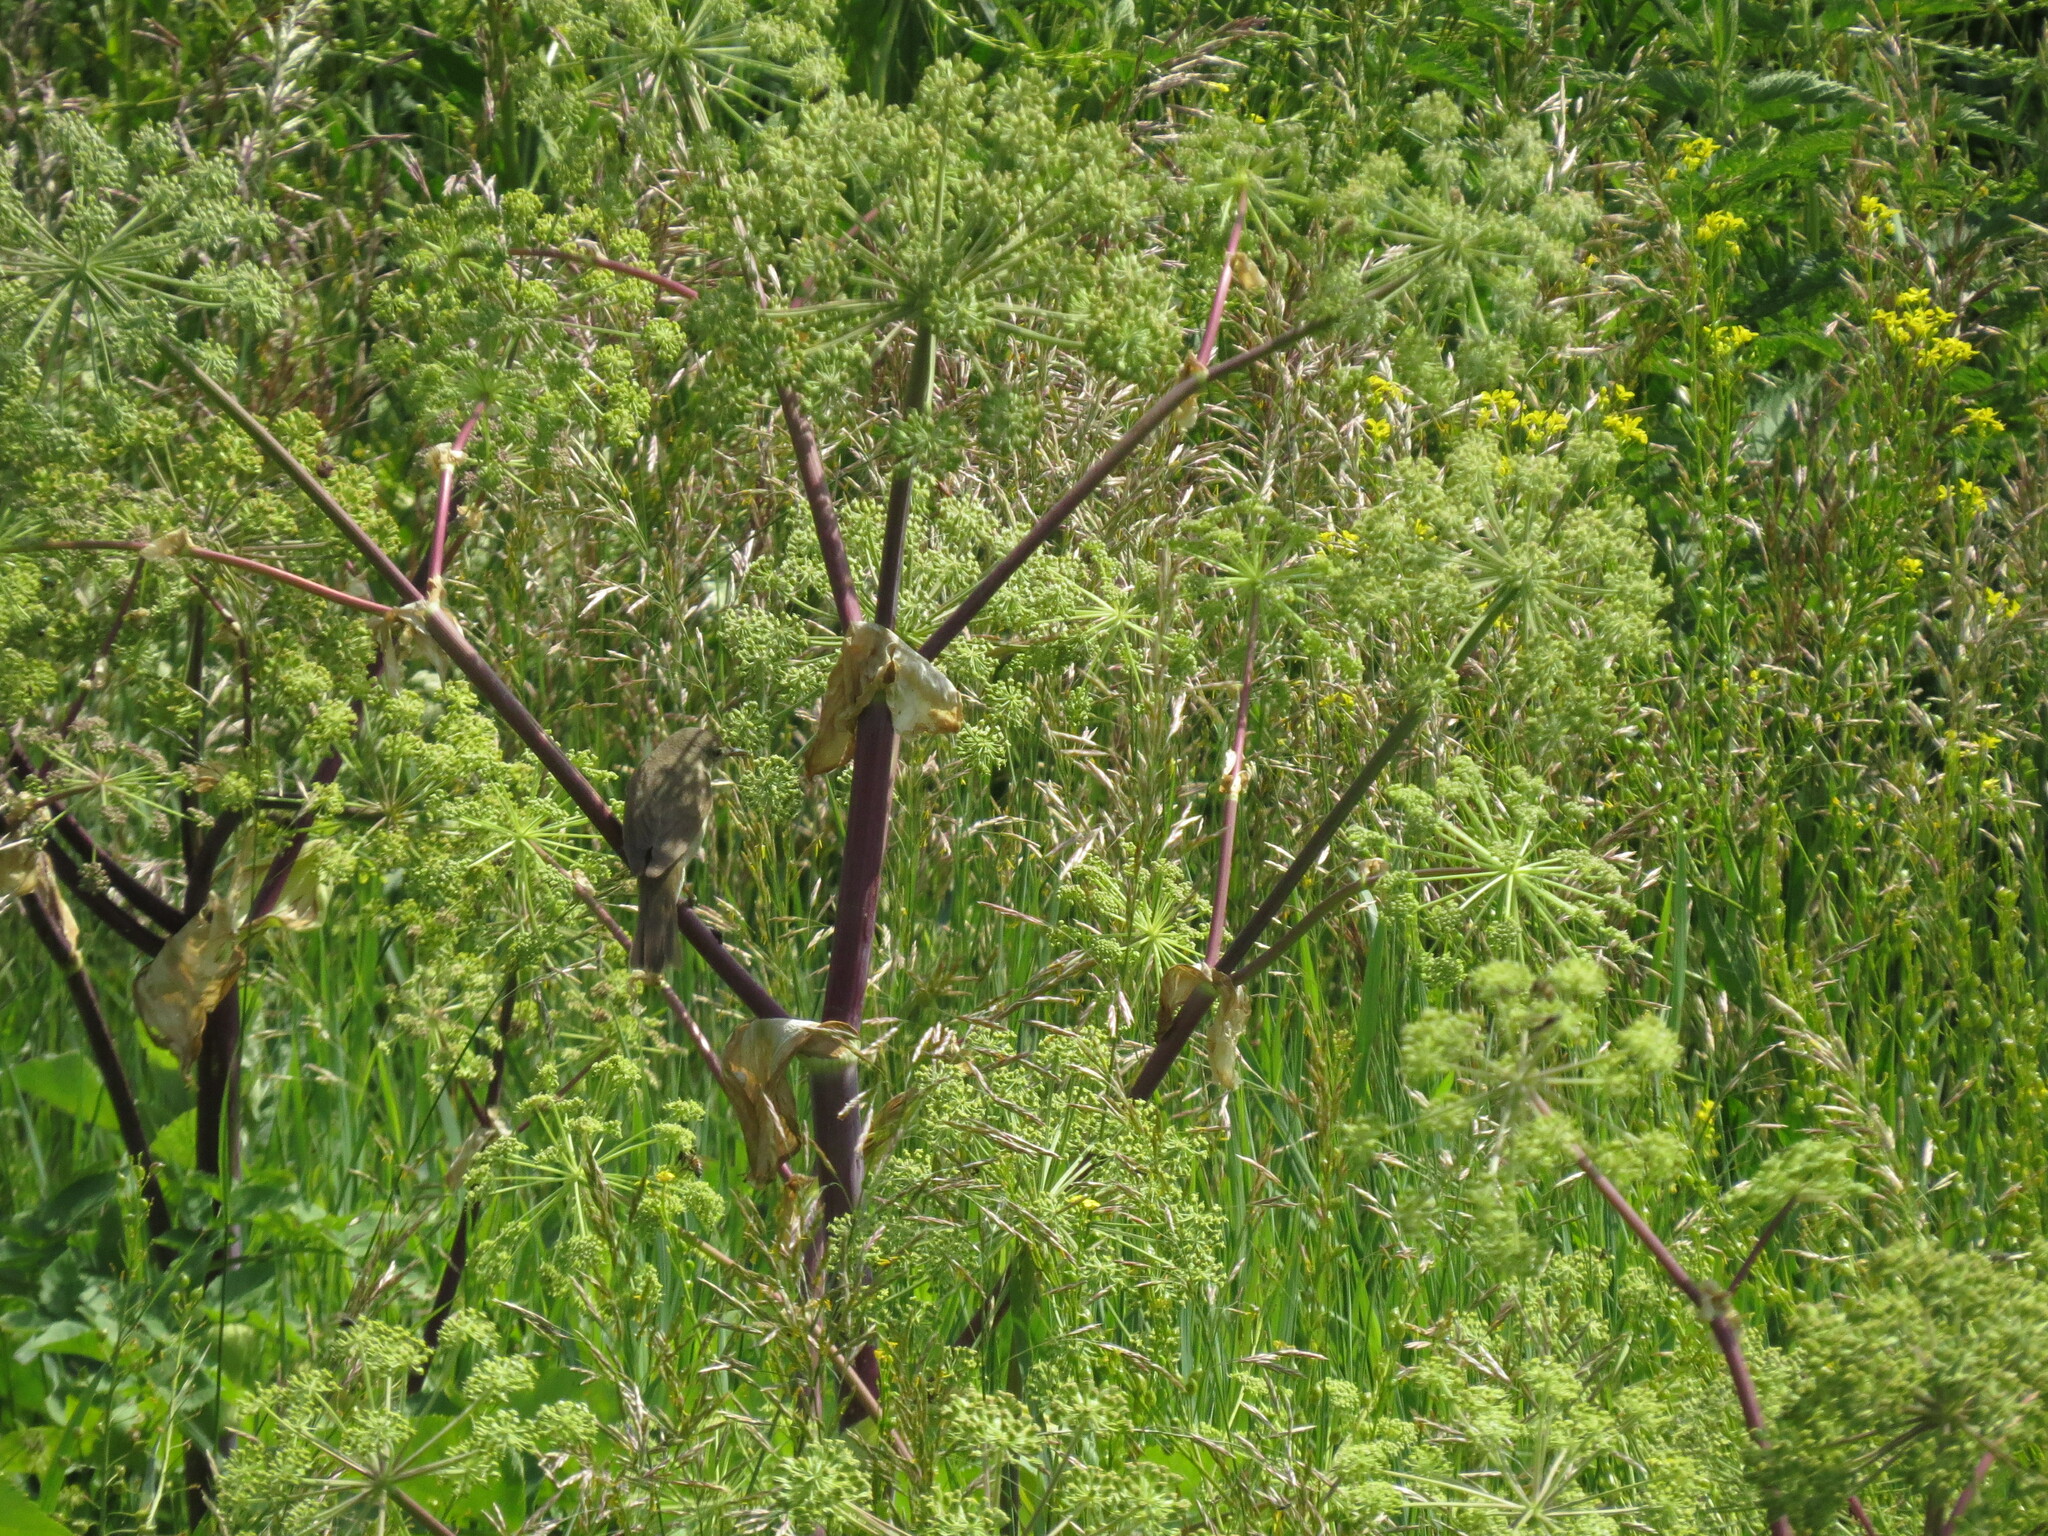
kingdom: Animalia
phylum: Chordata
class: Aves
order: Passeriformes
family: Acrocephalidae
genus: Acrocephalus
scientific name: Acrocephalus dumetorum
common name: Blyth's reed warbler
